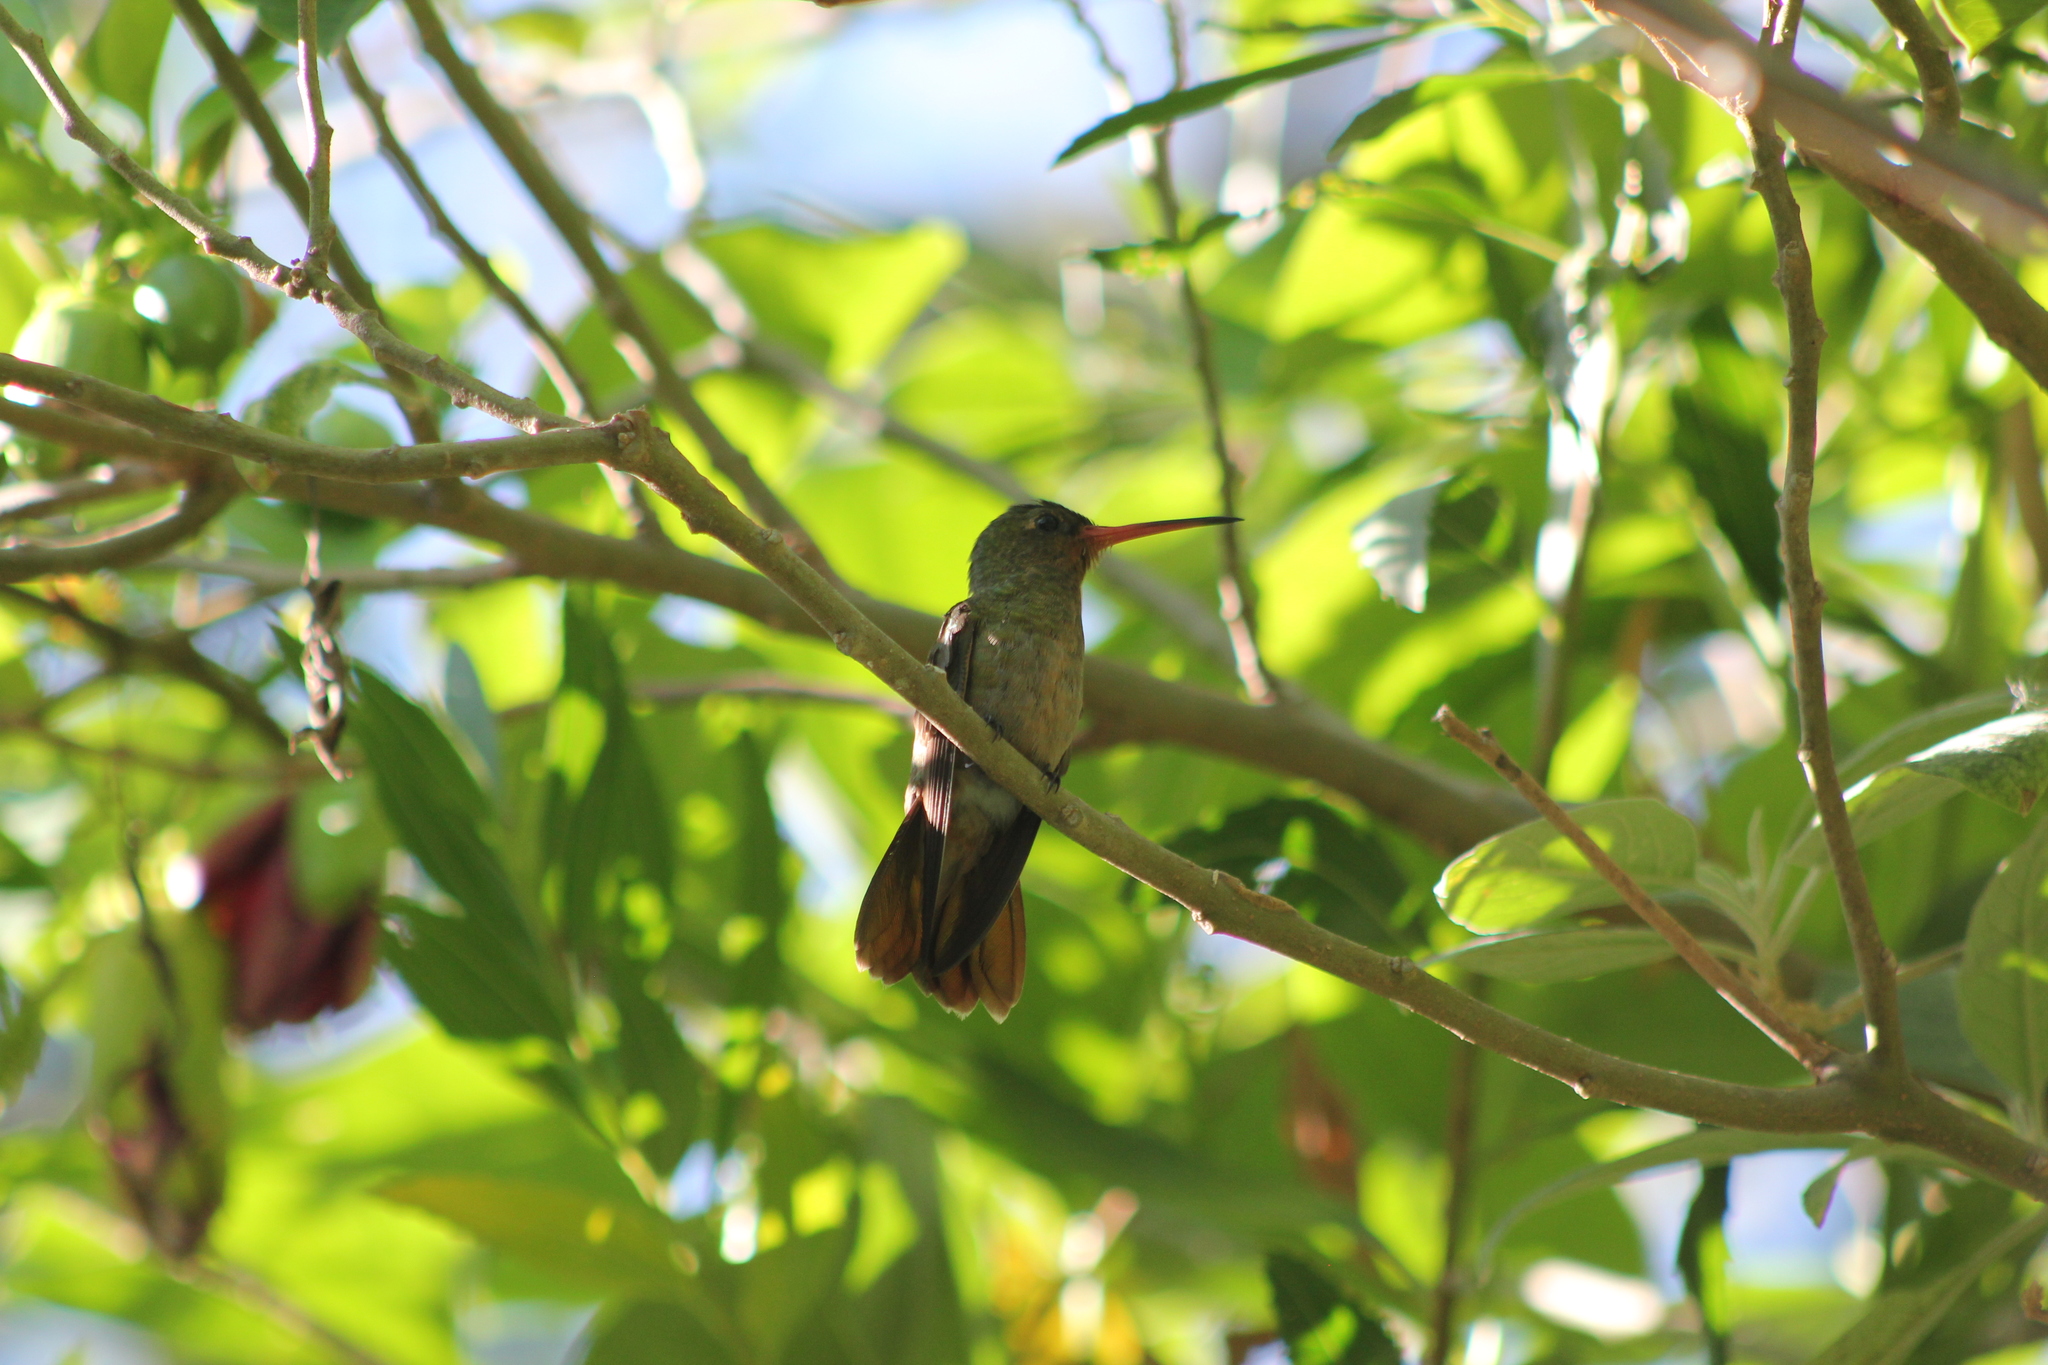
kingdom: Animalia
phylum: Chordata
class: Aves
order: Apodiformes
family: Trochilidae
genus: Hylocharis
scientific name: Hylocharis chrysura
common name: Gilded sapphire
